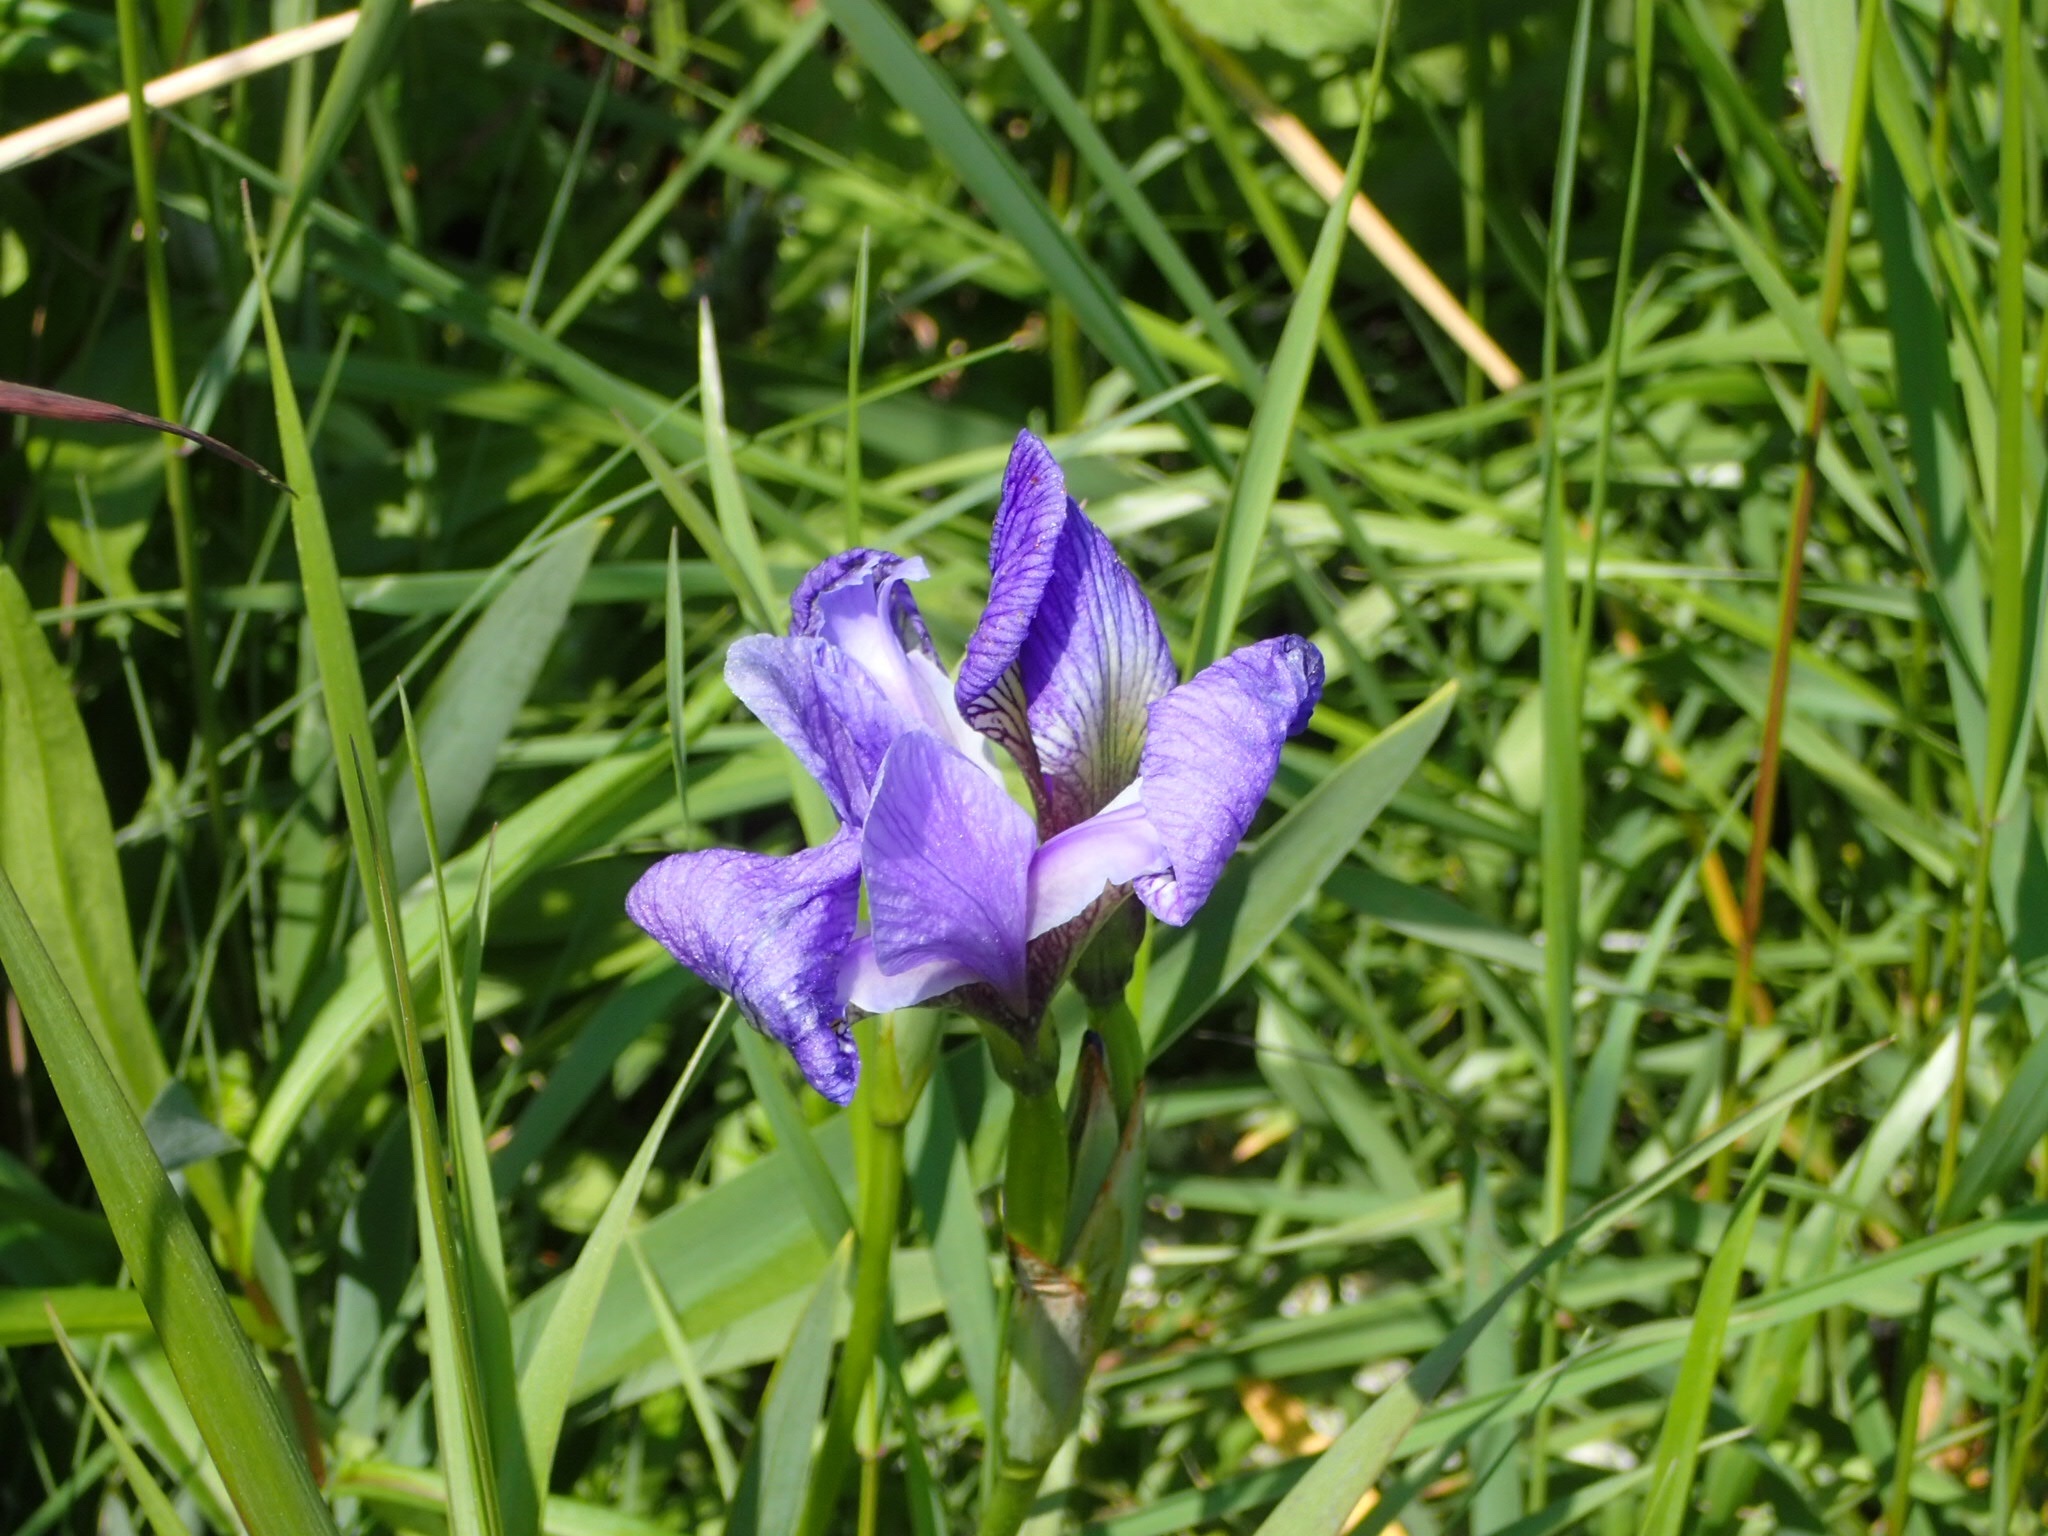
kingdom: Plantae
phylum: Tracheophyta
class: Liliopsida
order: Asparagales
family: Iridaceae
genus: Iris
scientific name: Iris versicolor
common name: Purple iris
